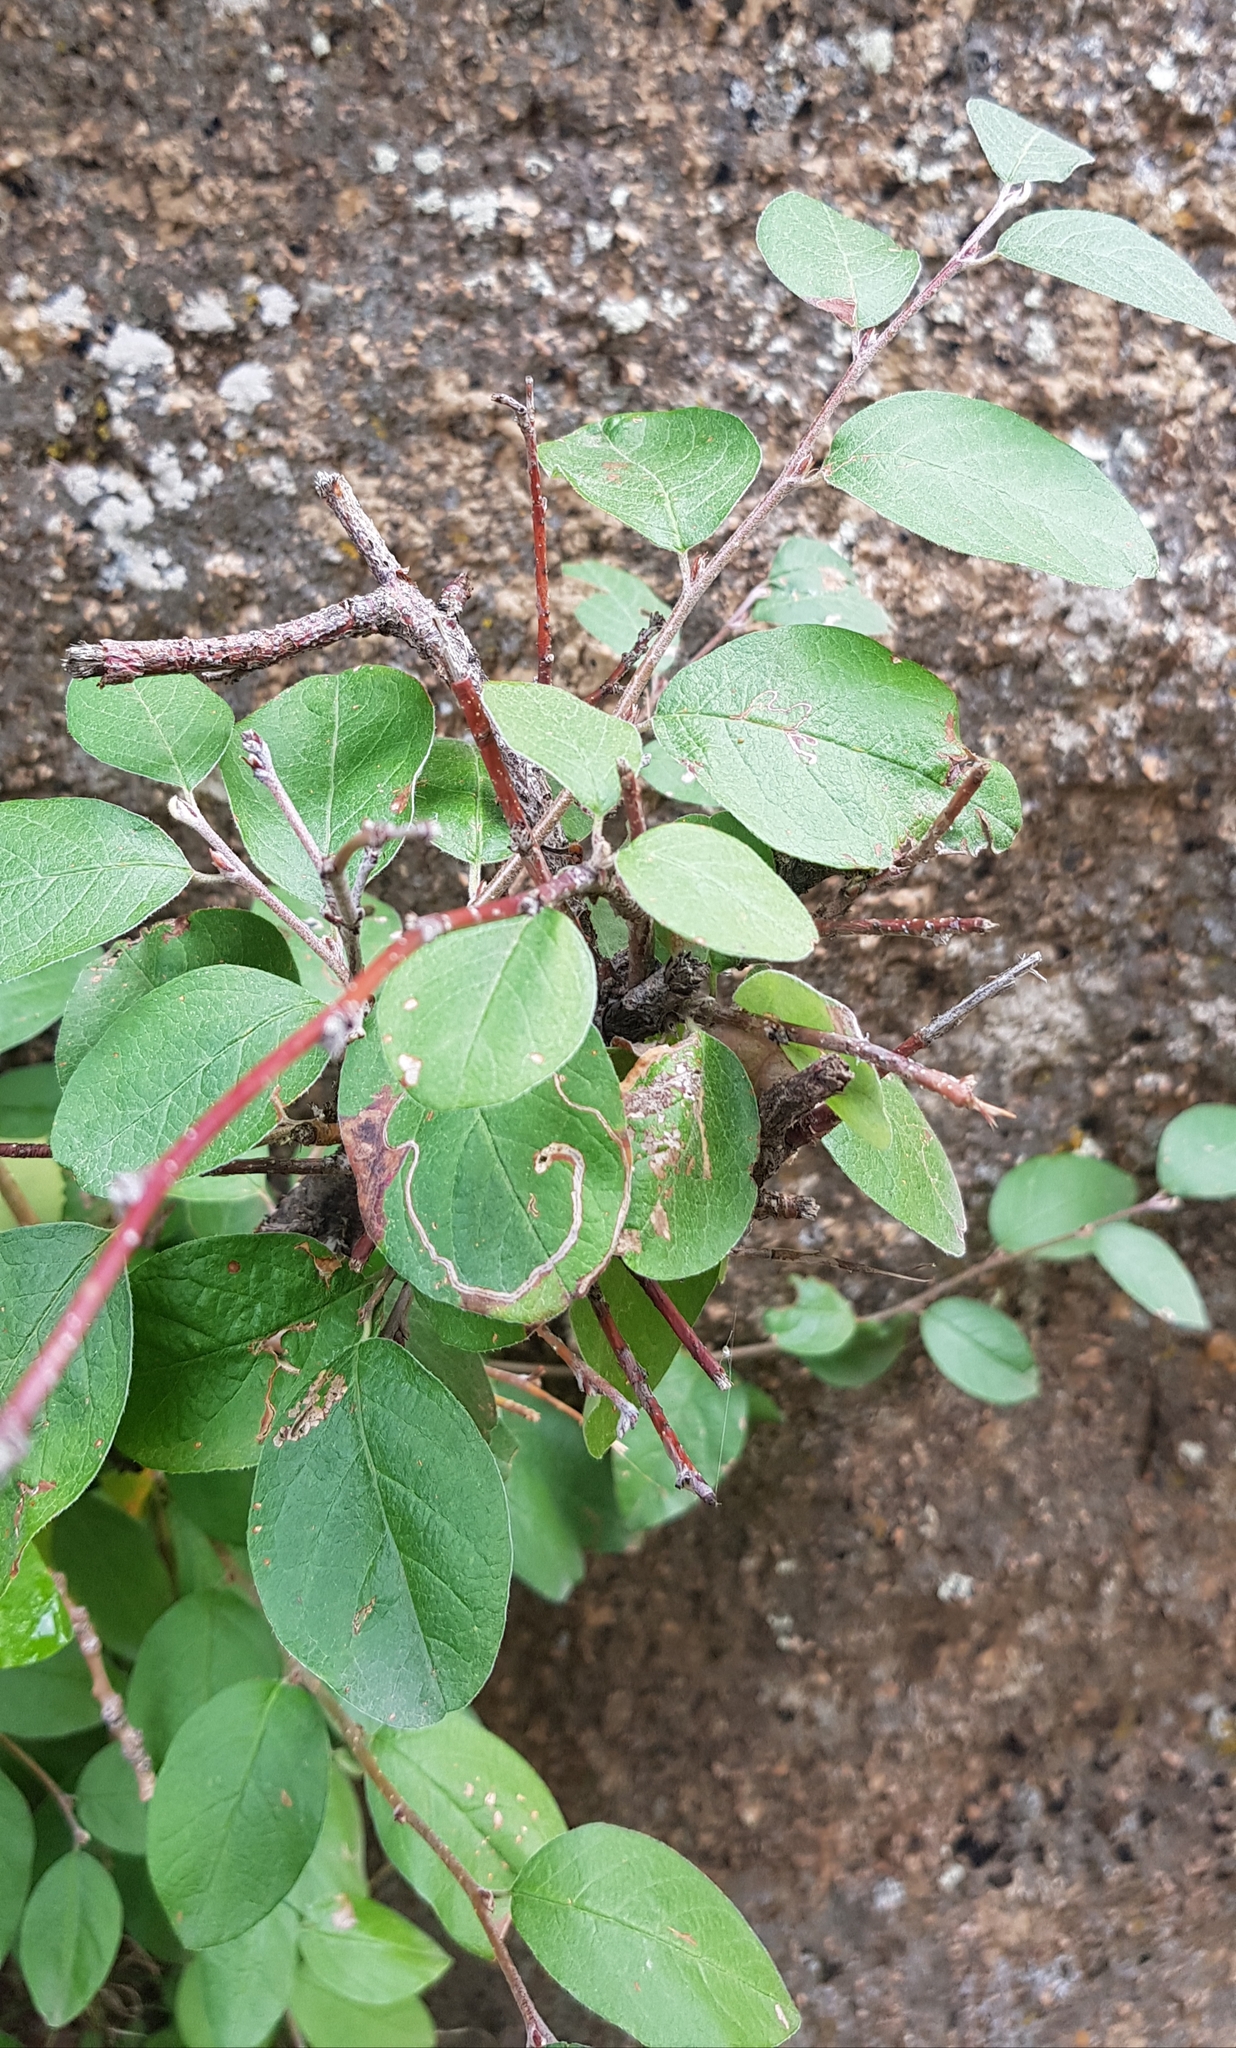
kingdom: Plantae
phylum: Tracheophyta
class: Magnoliopsida
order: Rosales
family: Rosaceae
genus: Cotoneaster
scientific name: Cotoneaster mongolicus
